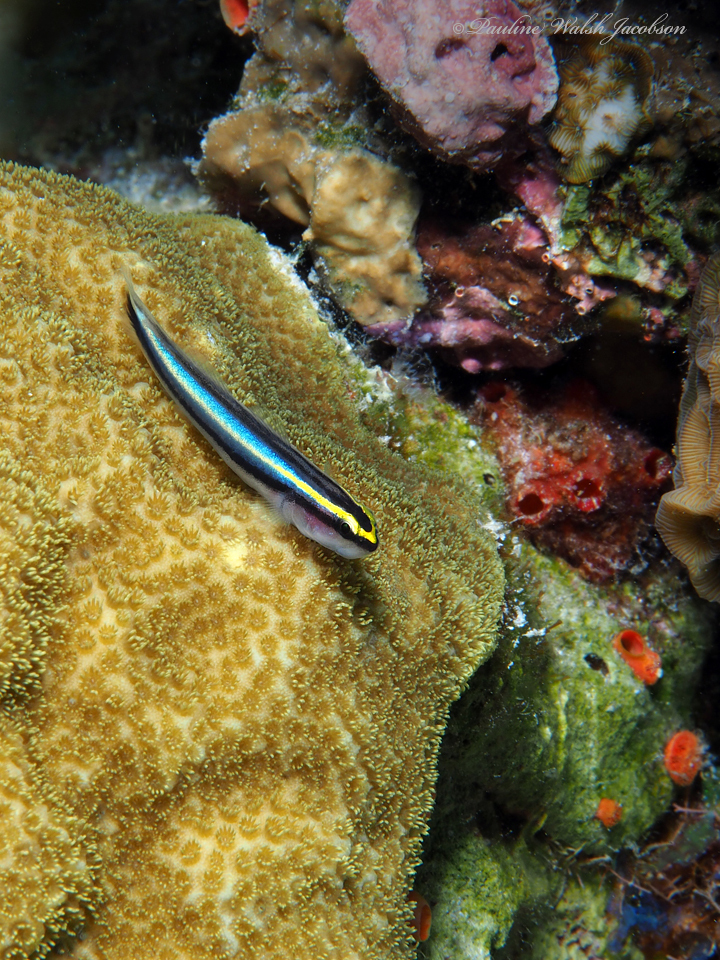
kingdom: Animalia
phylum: Chordata
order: Perciformes
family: Gobiidae
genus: Elacatinus
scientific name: Elacatinus evelynae
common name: Sharknose goby
